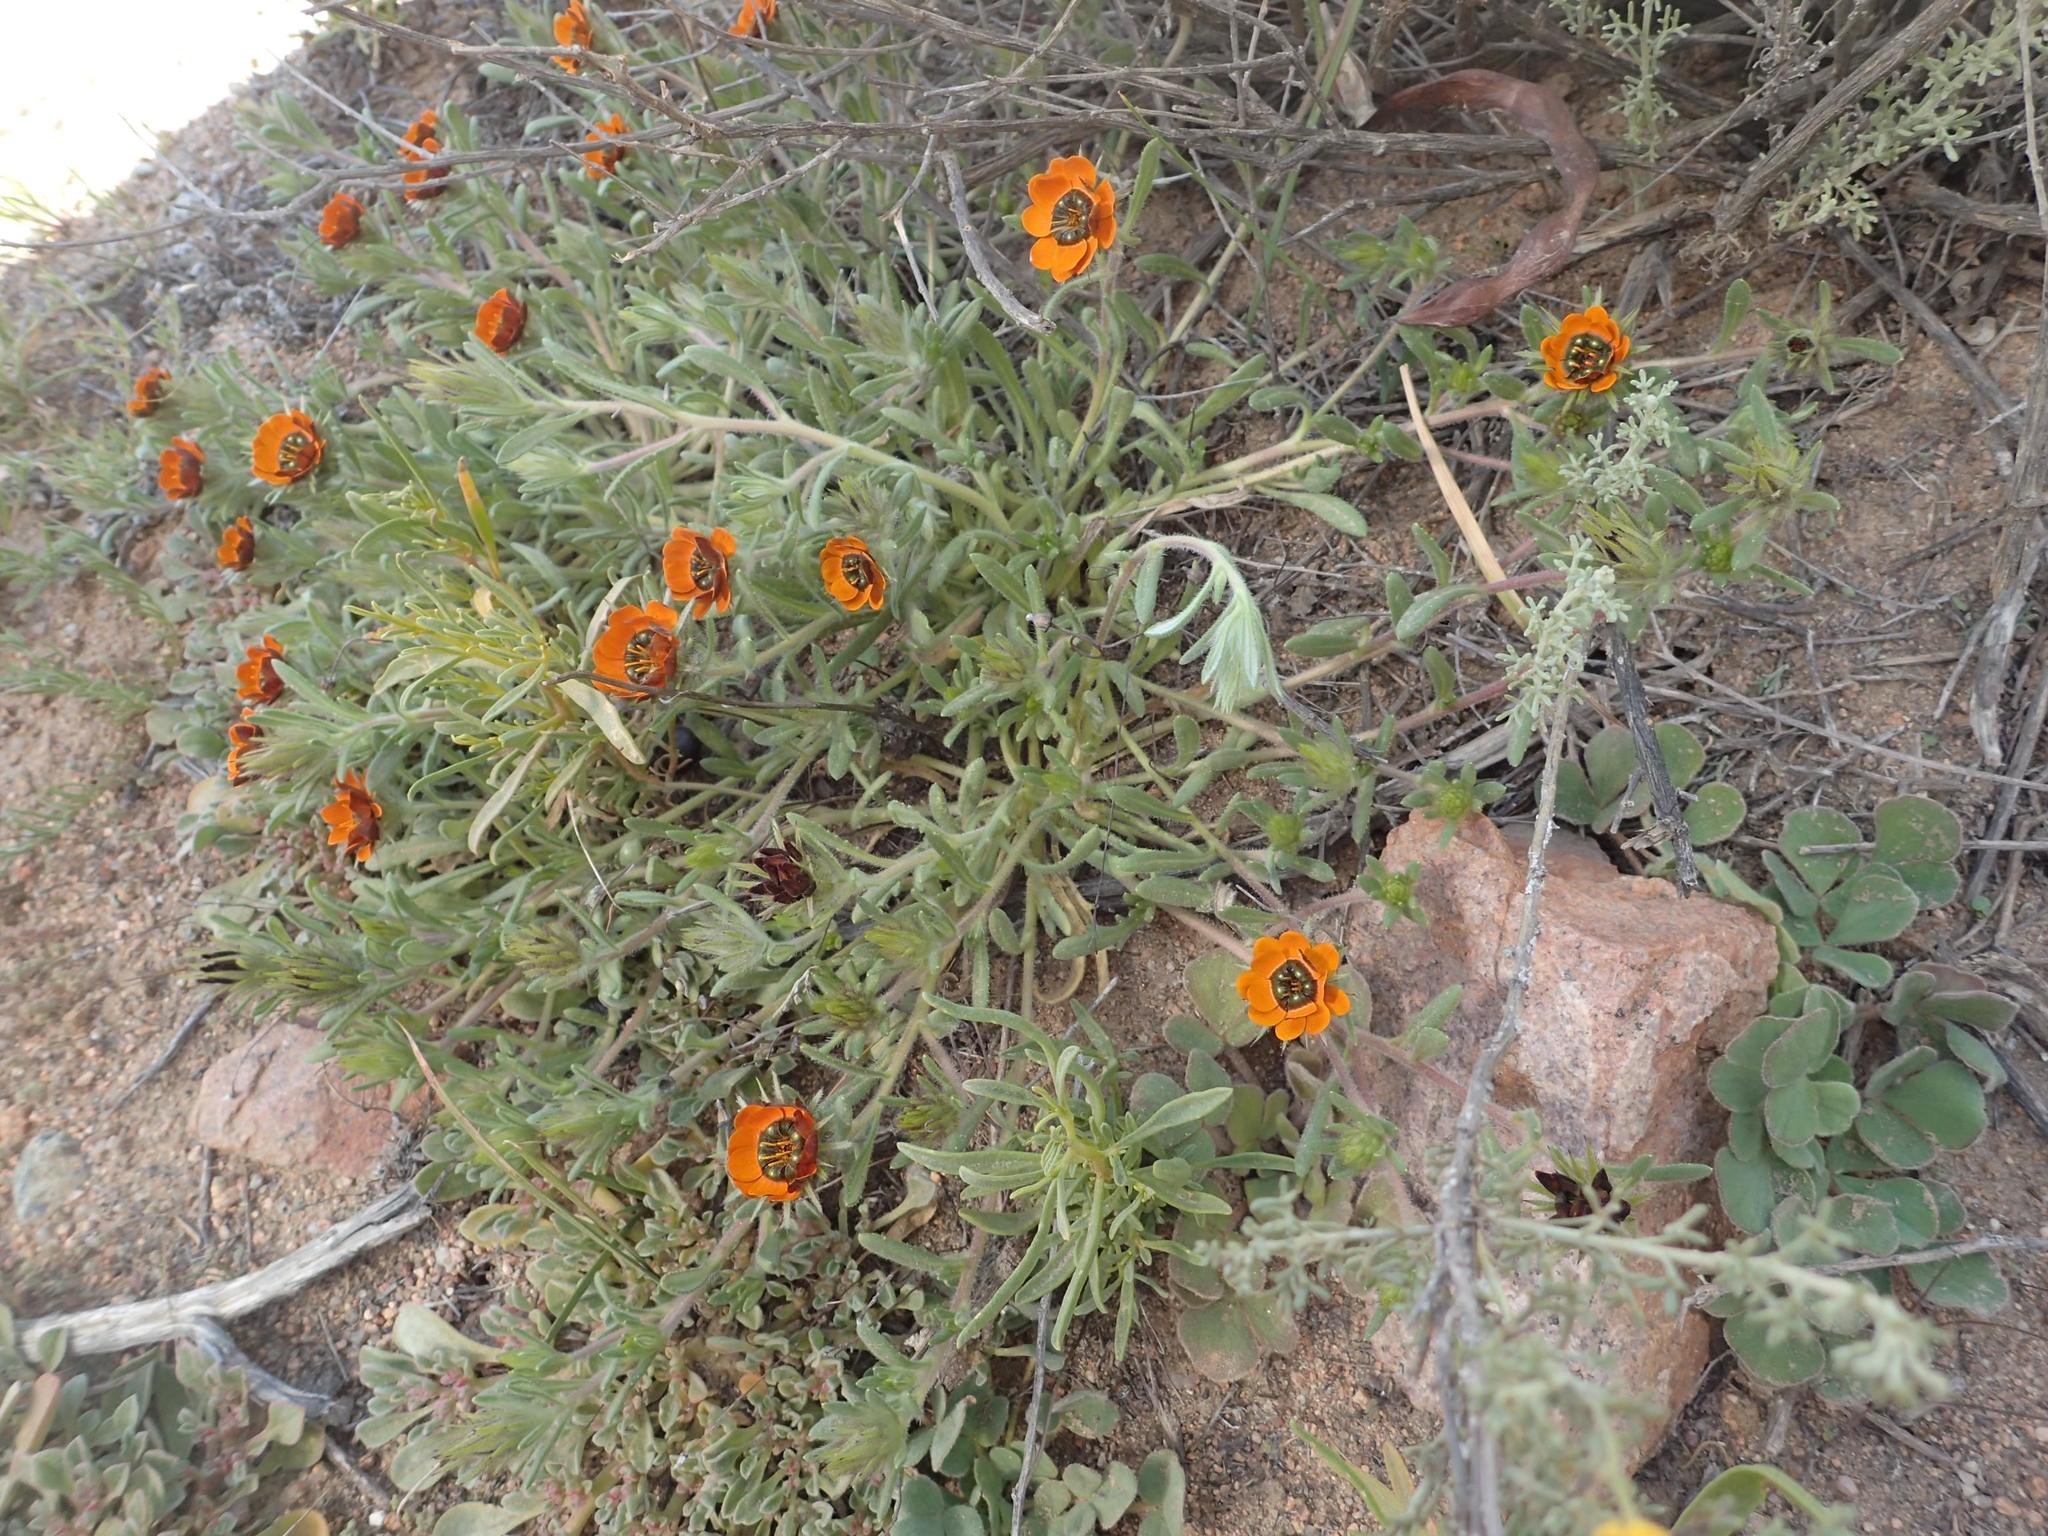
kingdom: Plantae
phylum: Tracheophyta
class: Magnoliopsida
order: Asterales
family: Asteraceae
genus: Gorteria
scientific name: Gorteria diffusa
